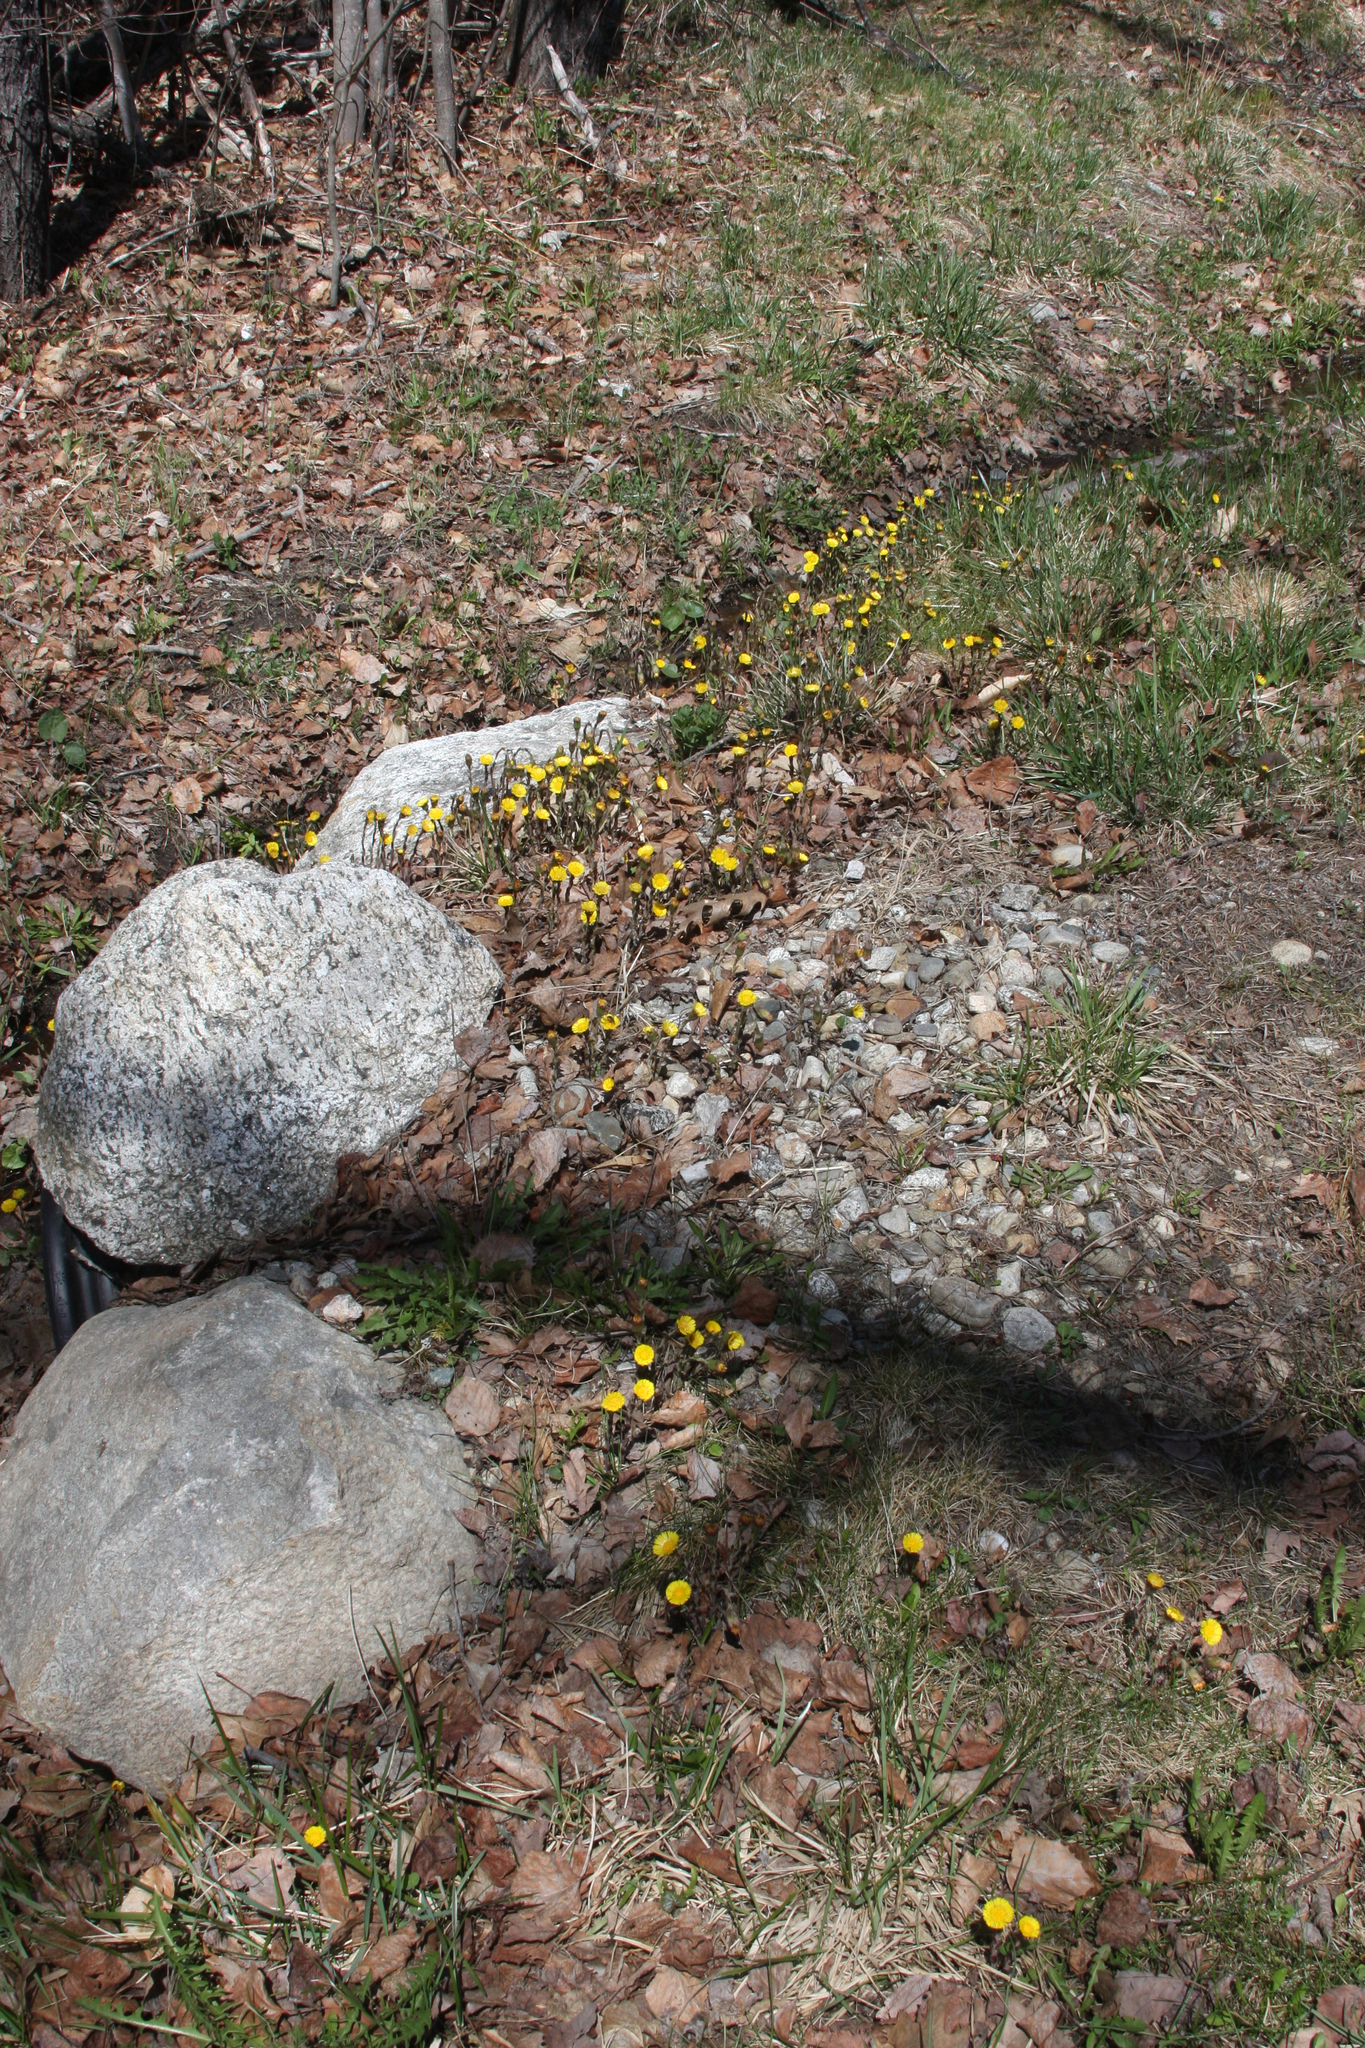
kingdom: Plantae
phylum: Tracheophyta
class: Magnoliopsida
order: Asterales
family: Asteraceae
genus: Tussilago
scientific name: Tussilago farfara
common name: Coltsfoot
